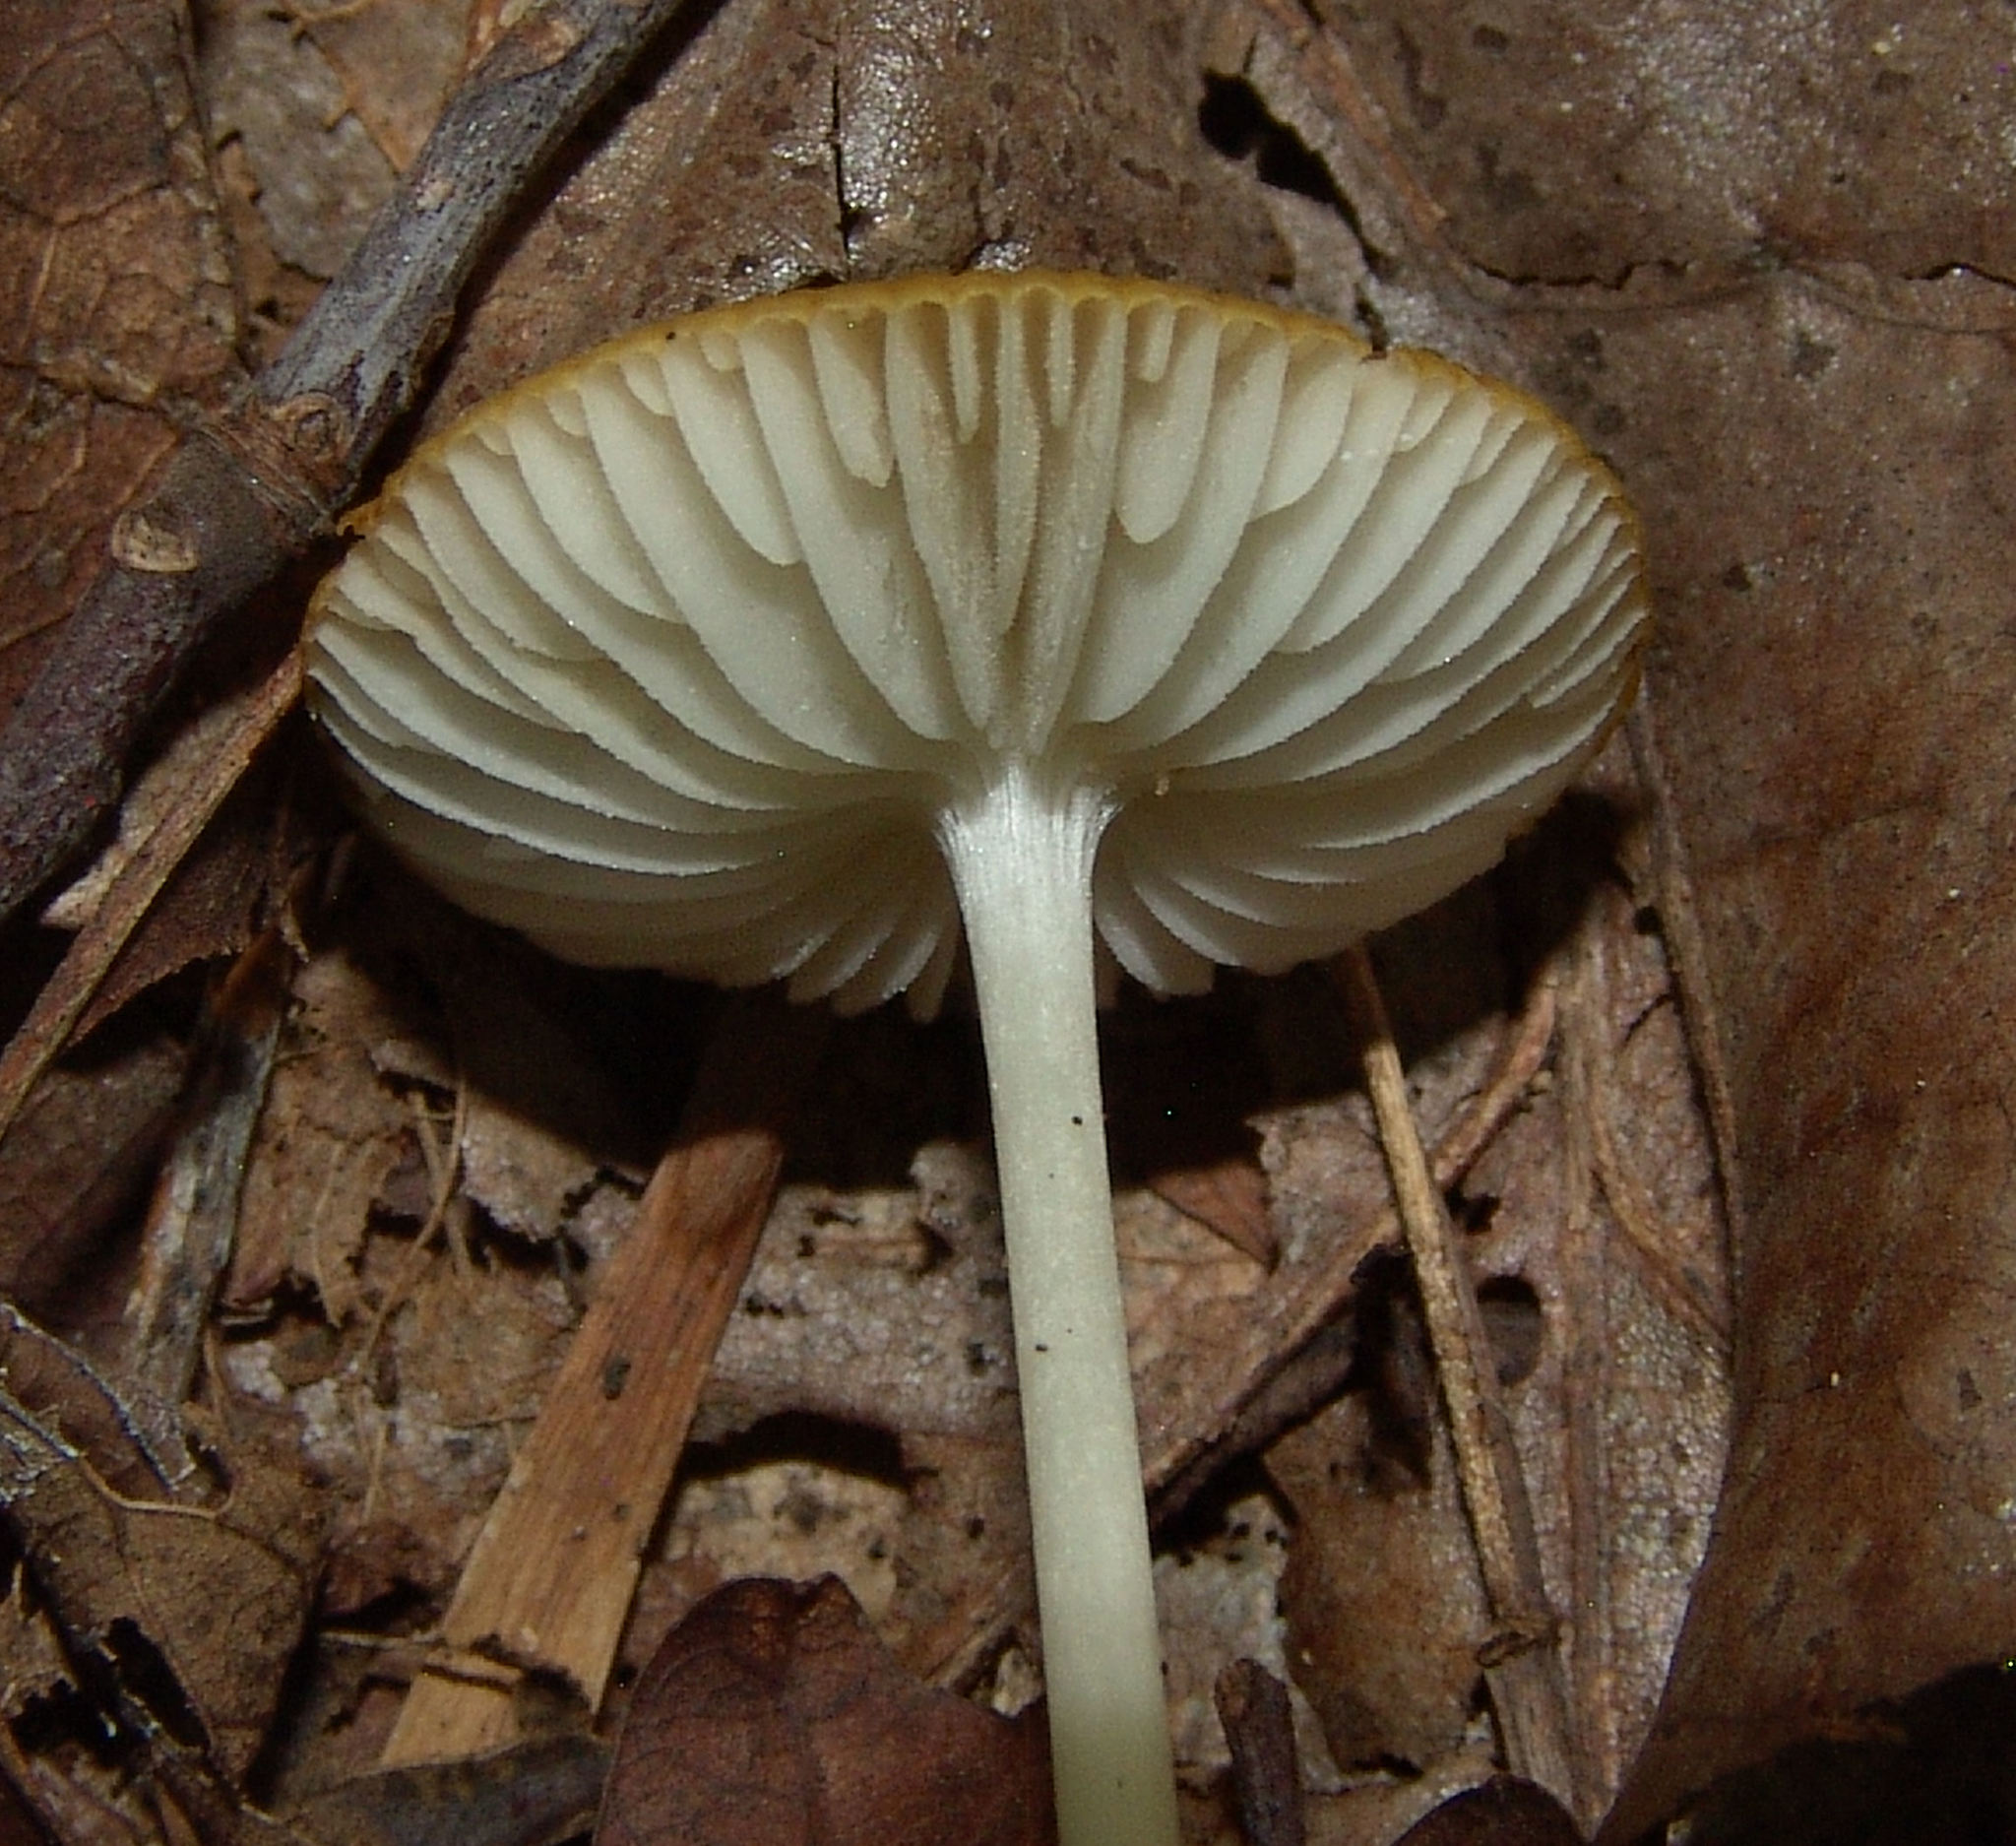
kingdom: Fungi
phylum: Basidiomycota
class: Agaricomycetes
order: Agaricales
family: Physalacriaceae
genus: Hymenopellis
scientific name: Hymenopellis incognita
